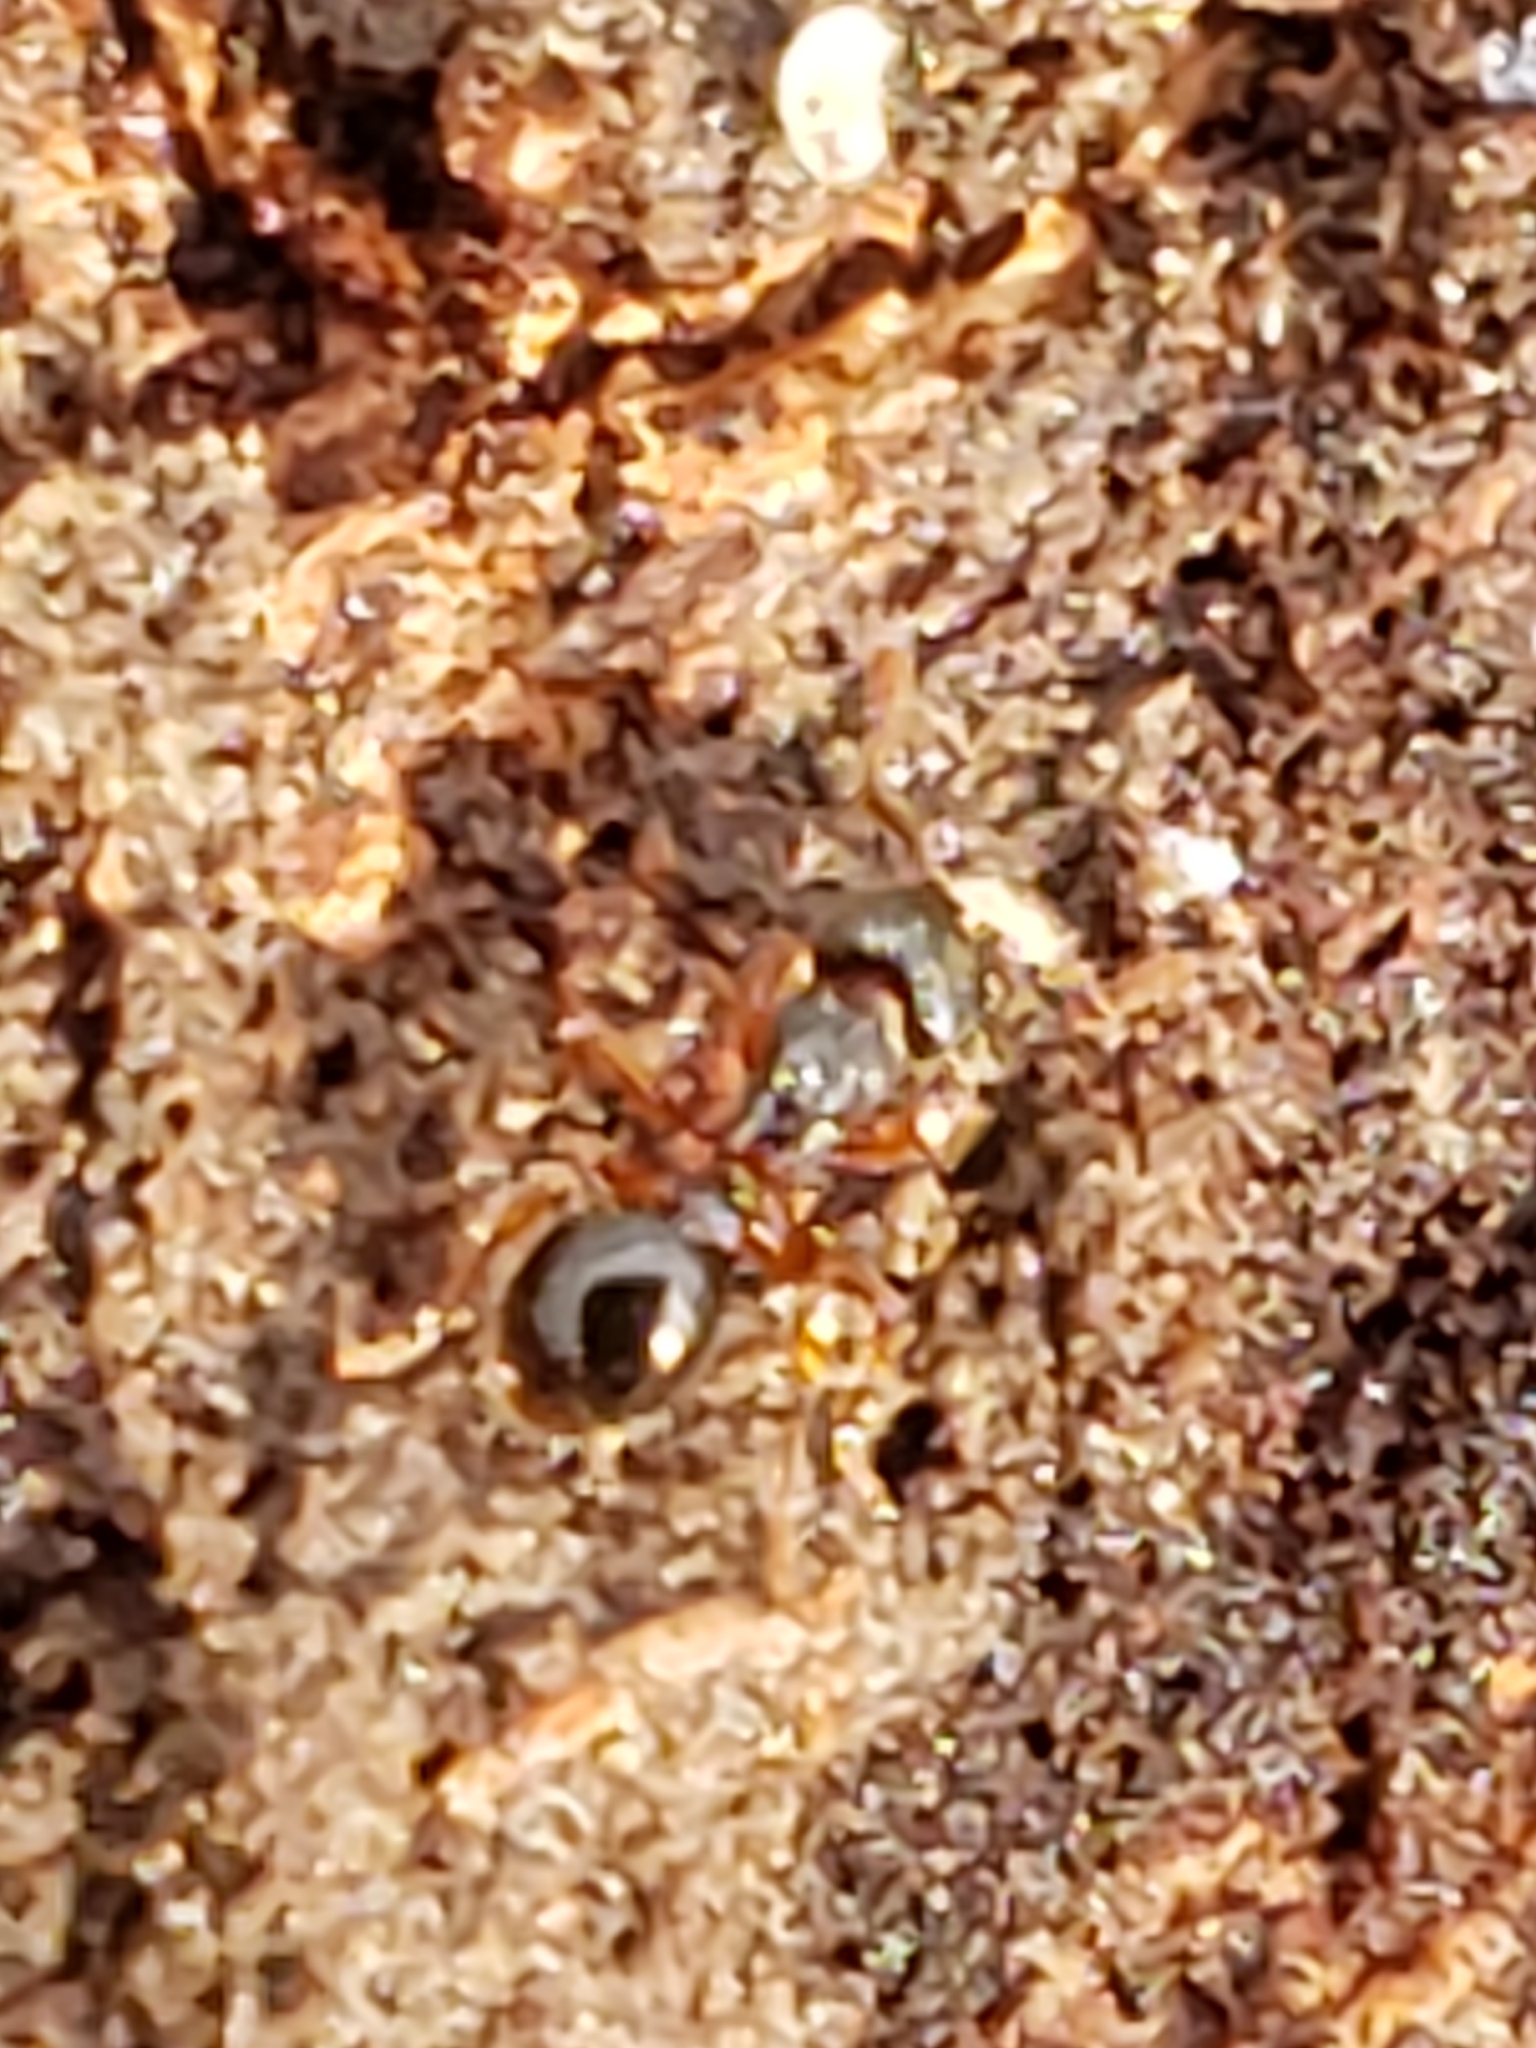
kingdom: Animalia
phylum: Arthropoda
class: Insecta
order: Hymenoptera
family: Formicidae
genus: Myrmecina
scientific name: Myrmecina americana
